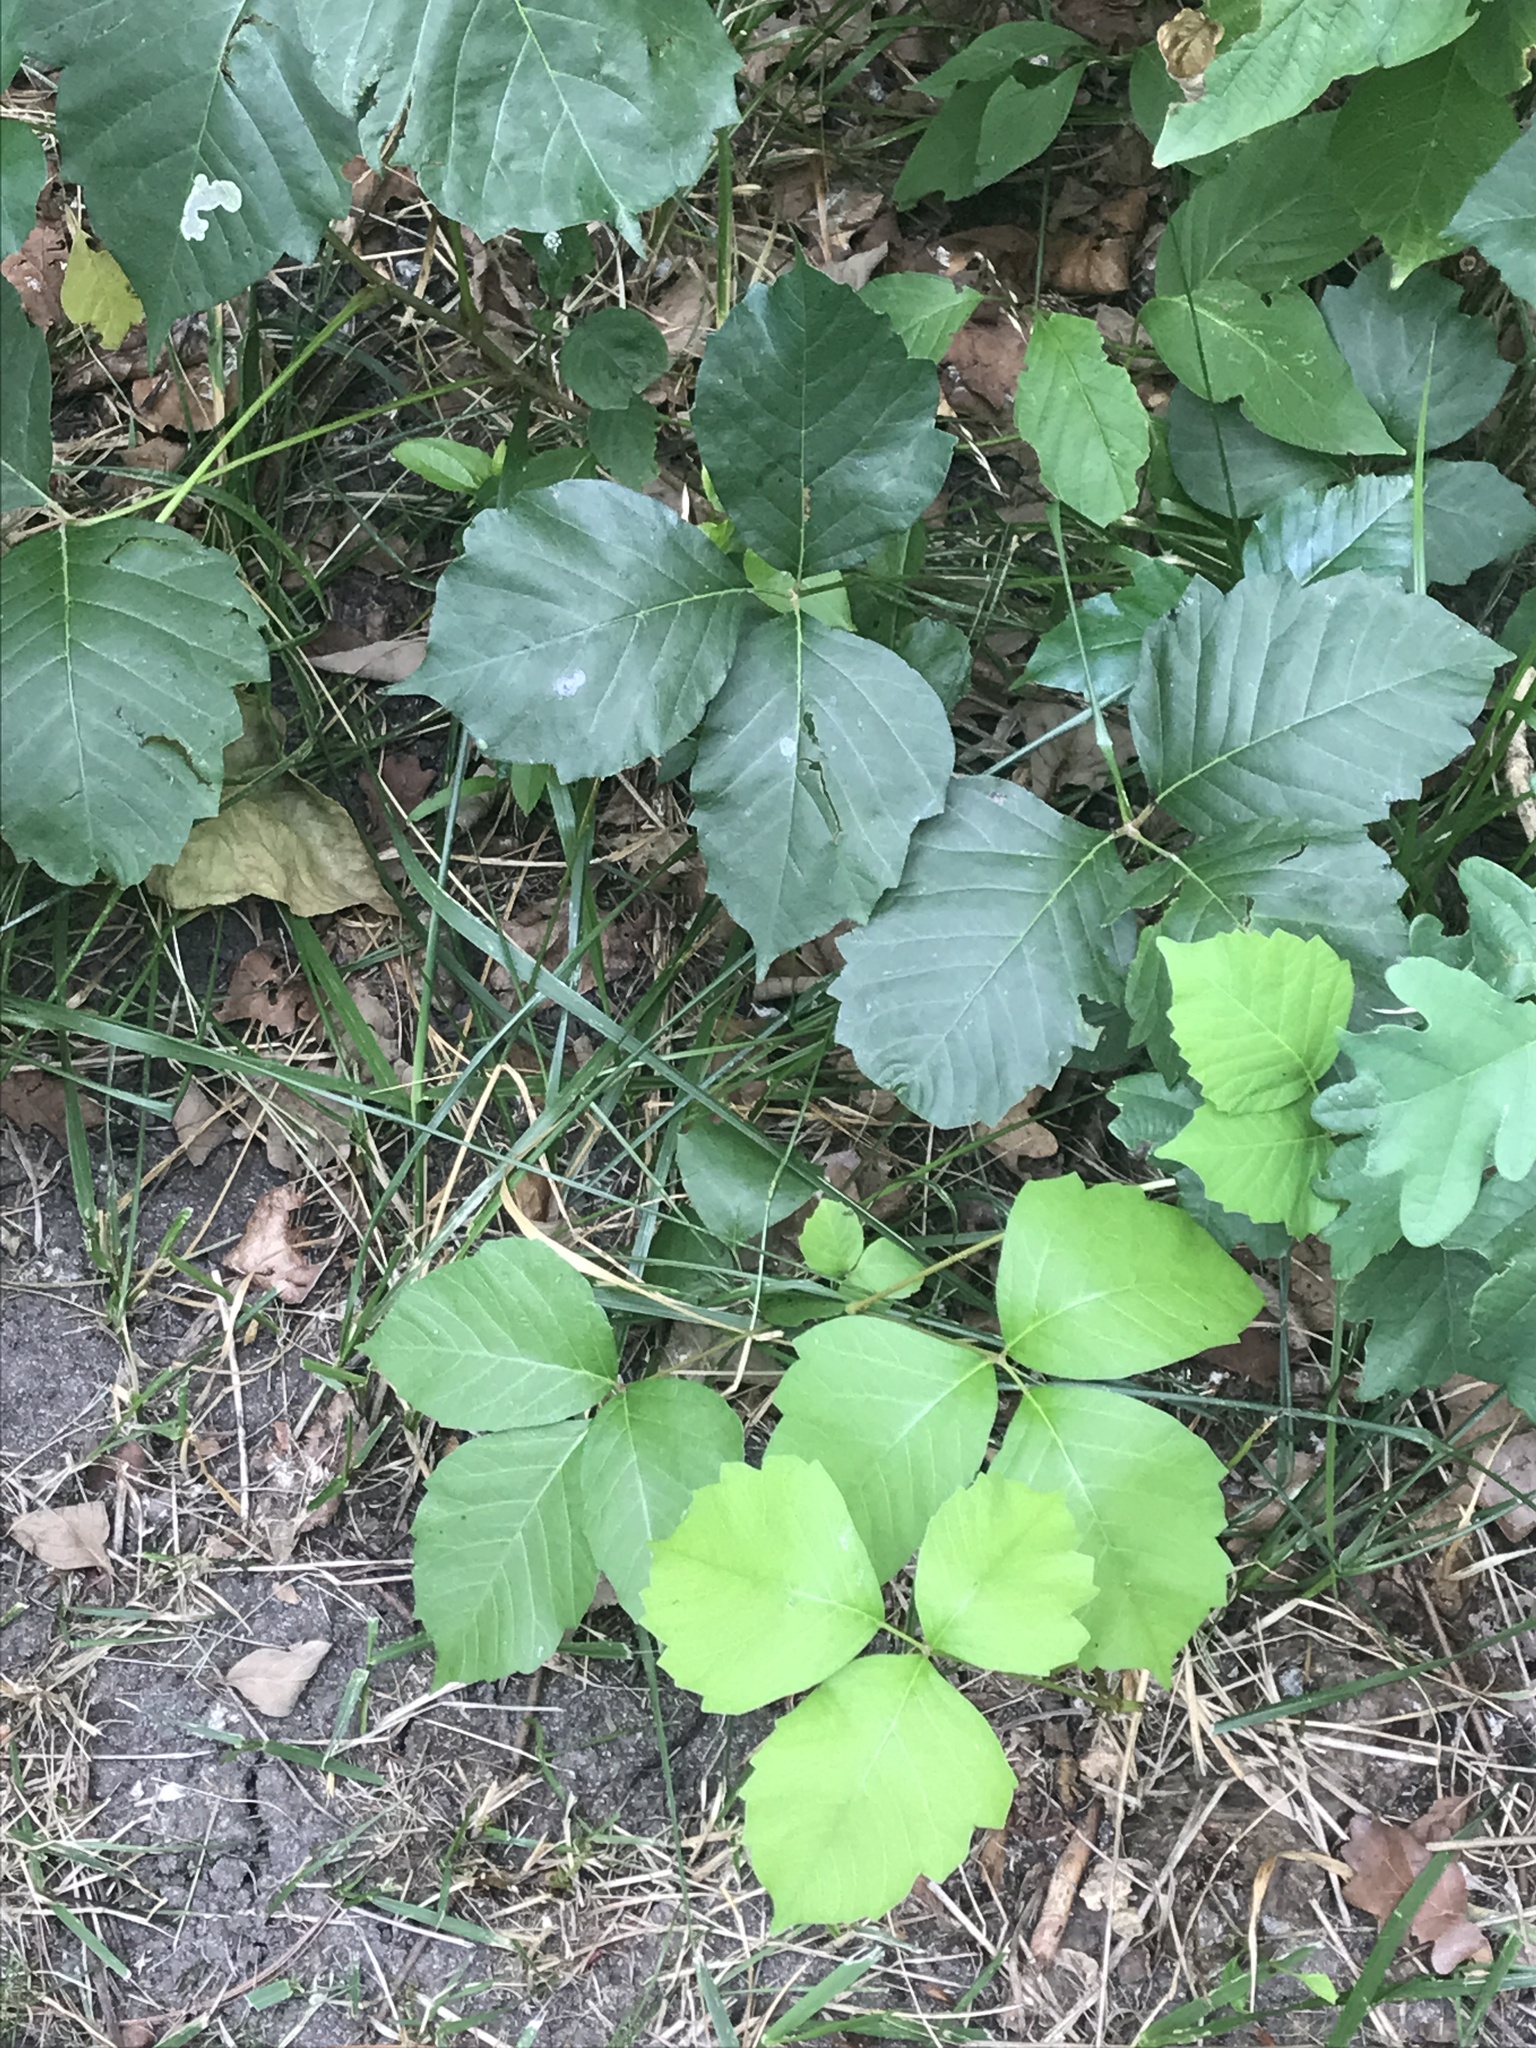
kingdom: Plantae
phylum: Tracheophyta
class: Magnoliopsida
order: Sapindales
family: Anacardiaceae
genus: Toxicodendron
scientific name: Toxicodendron rydbergii
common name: Rydberg's poison-ivy
